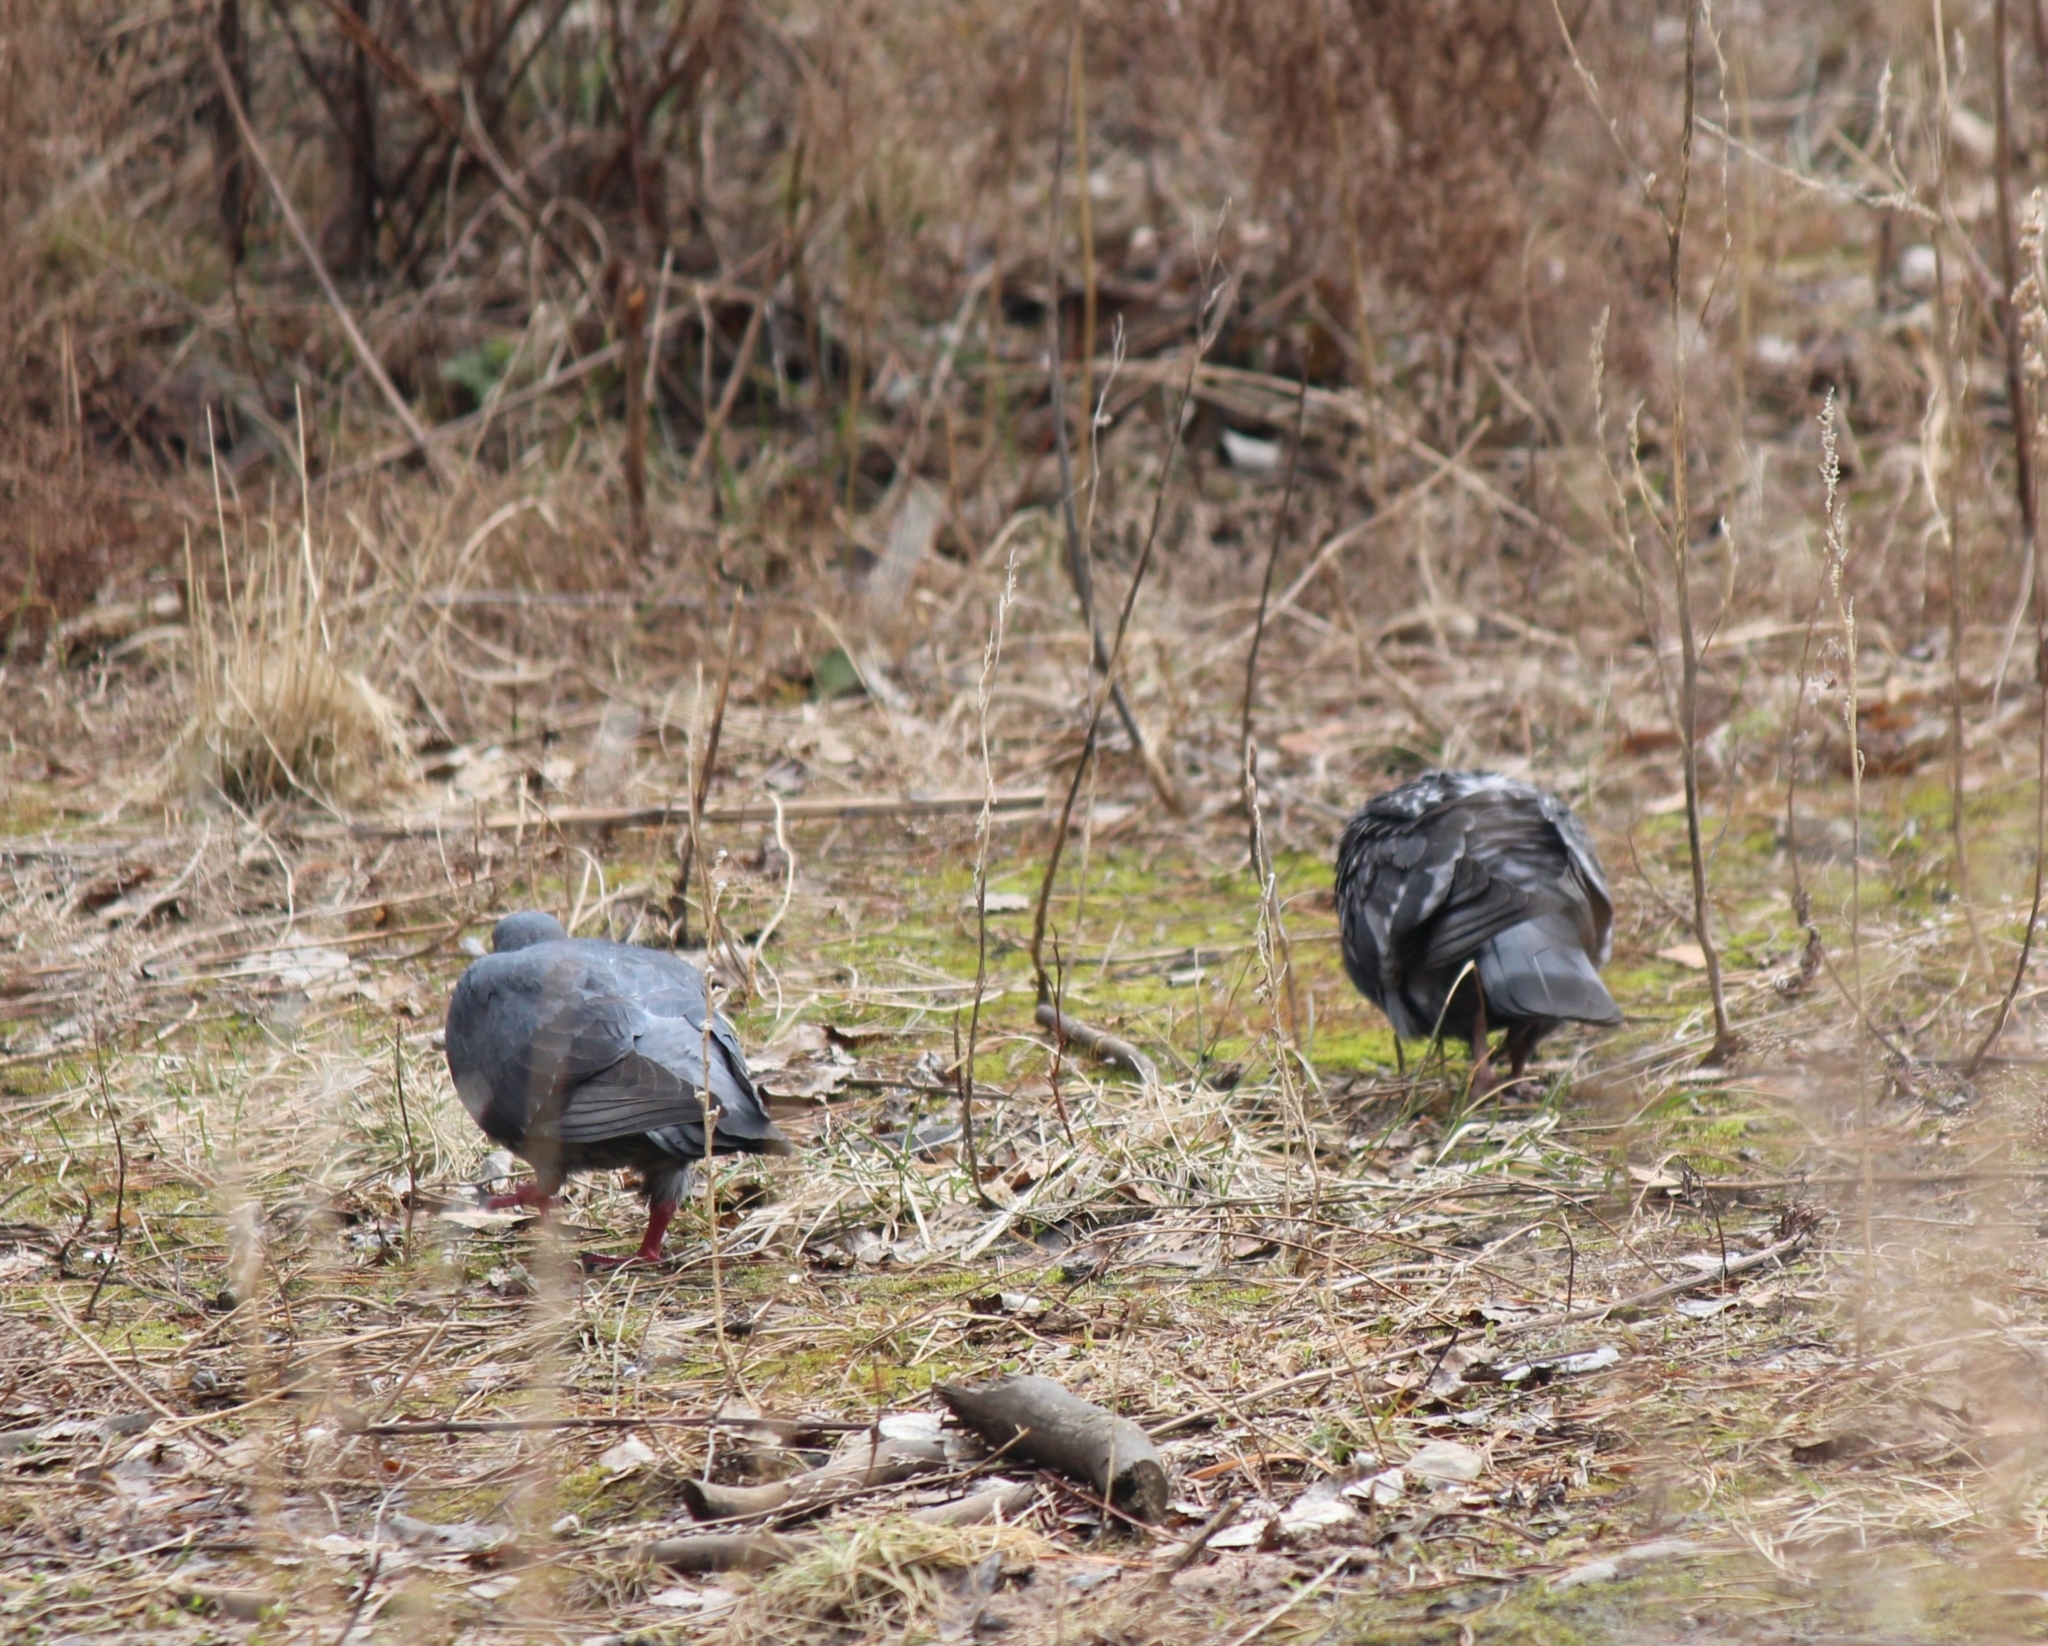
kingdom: Animalia
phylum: Chordata
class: Aves
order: Columbiformes
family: Columbidae
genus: Columba
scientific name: Columba livia
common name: Rock pigeon
